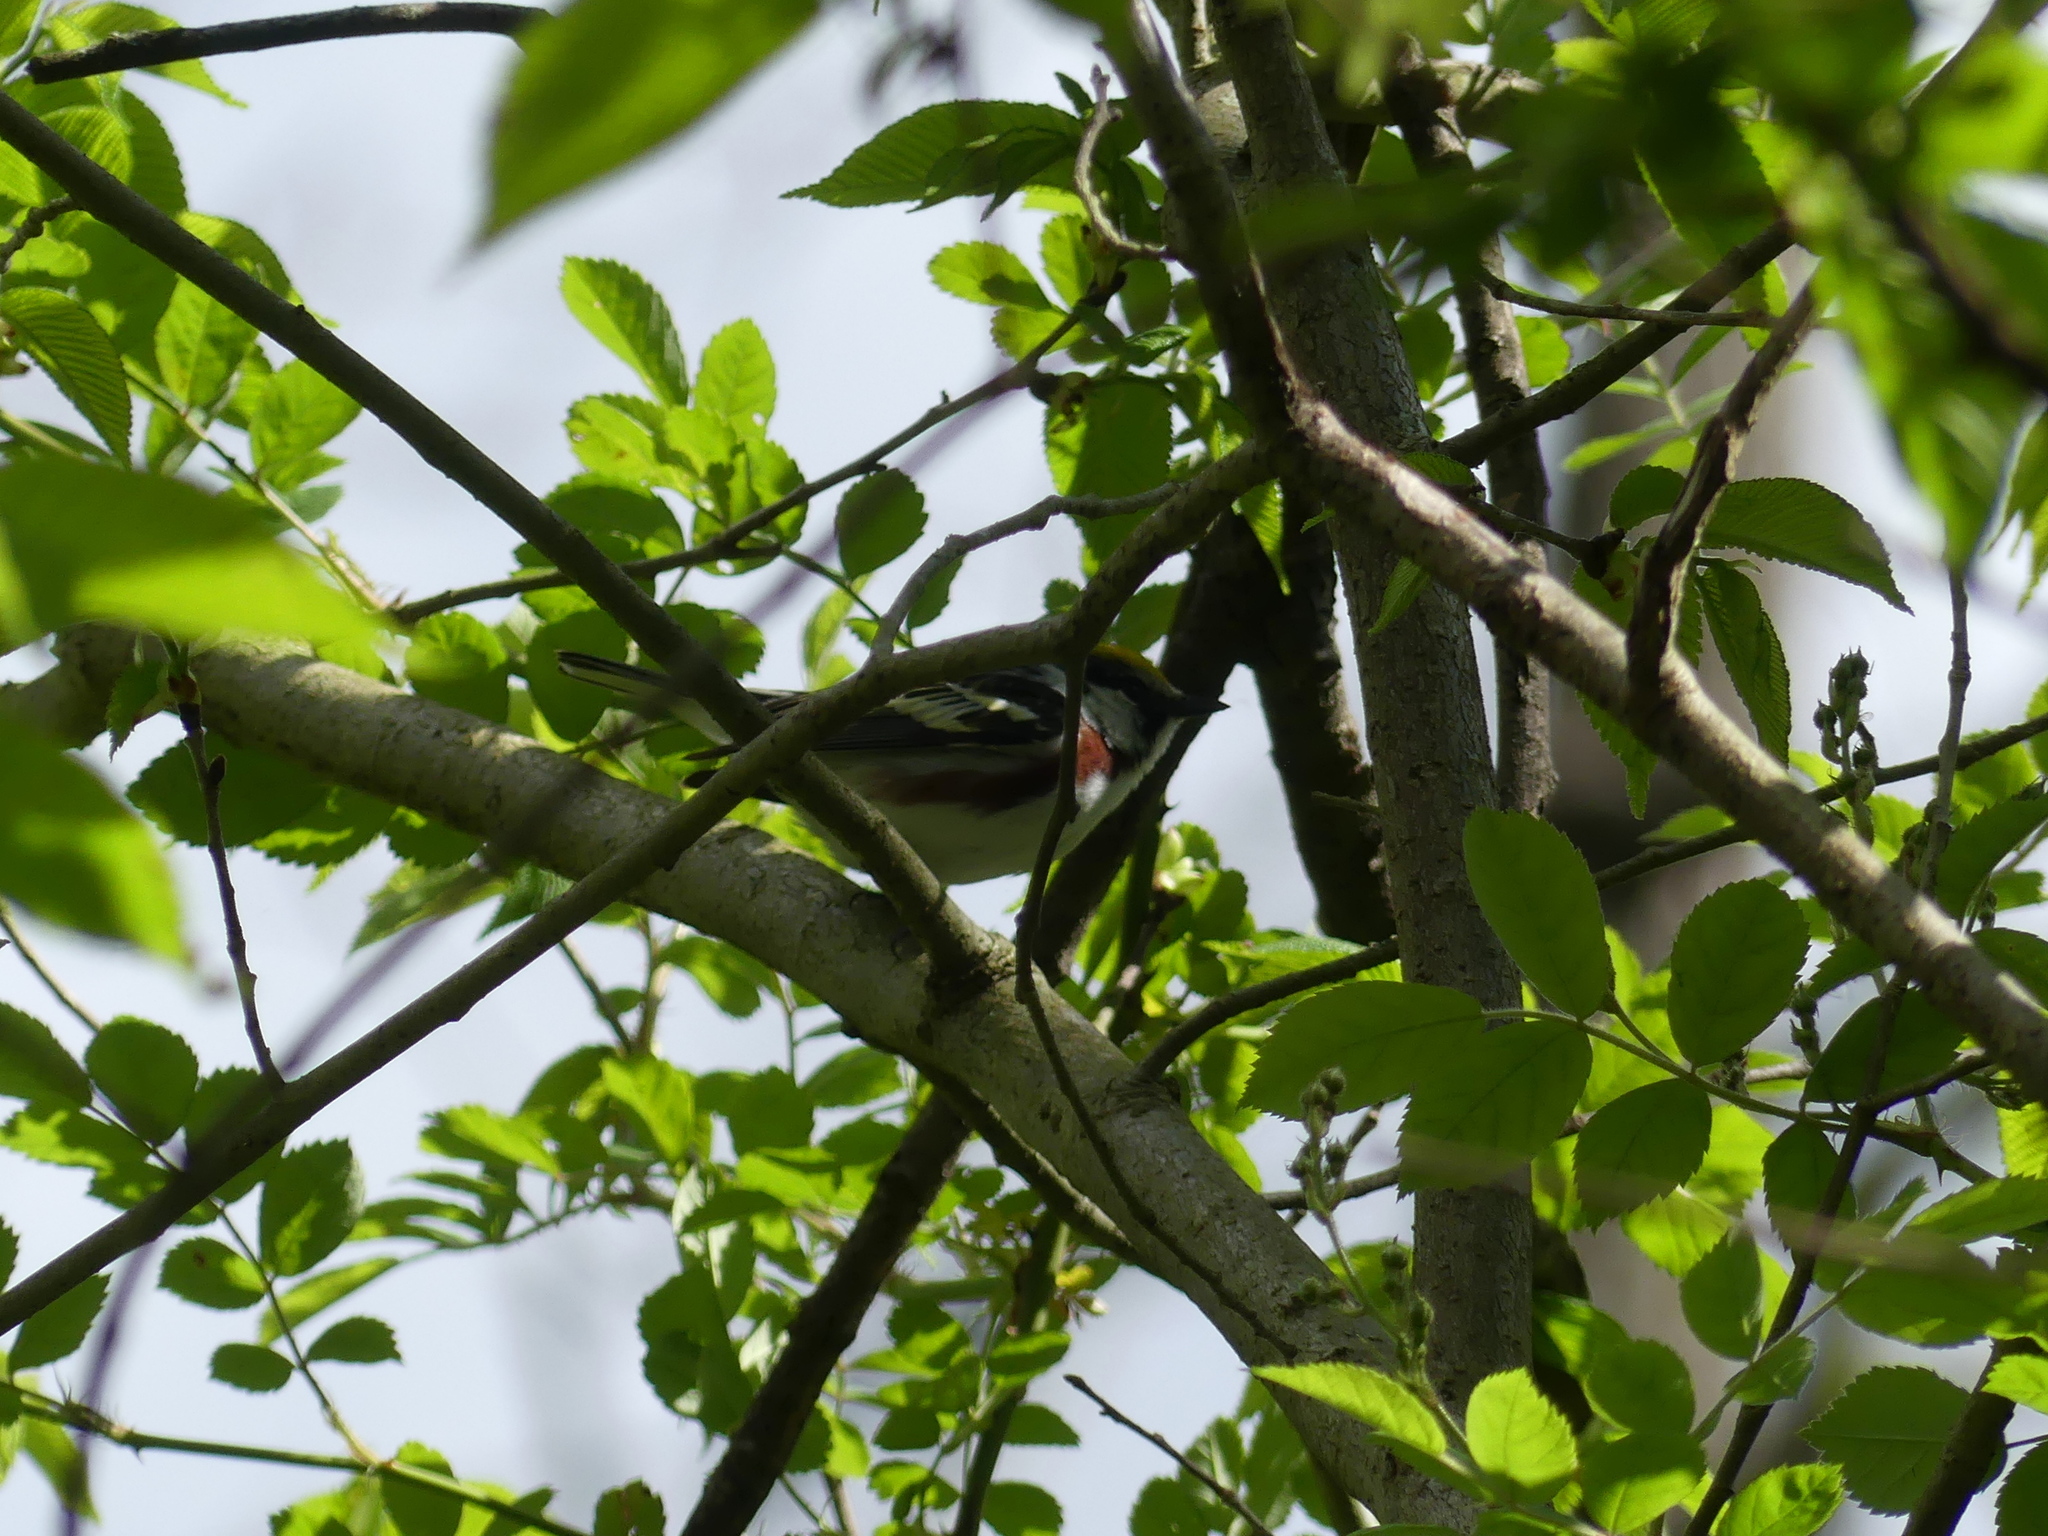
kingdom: Animalia
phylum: Chordata
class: Aves
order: Passeriformes
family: Parulidae
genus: Setophaga
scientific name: Setophaga pensylvanica
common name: Chestnut-sided warbler
